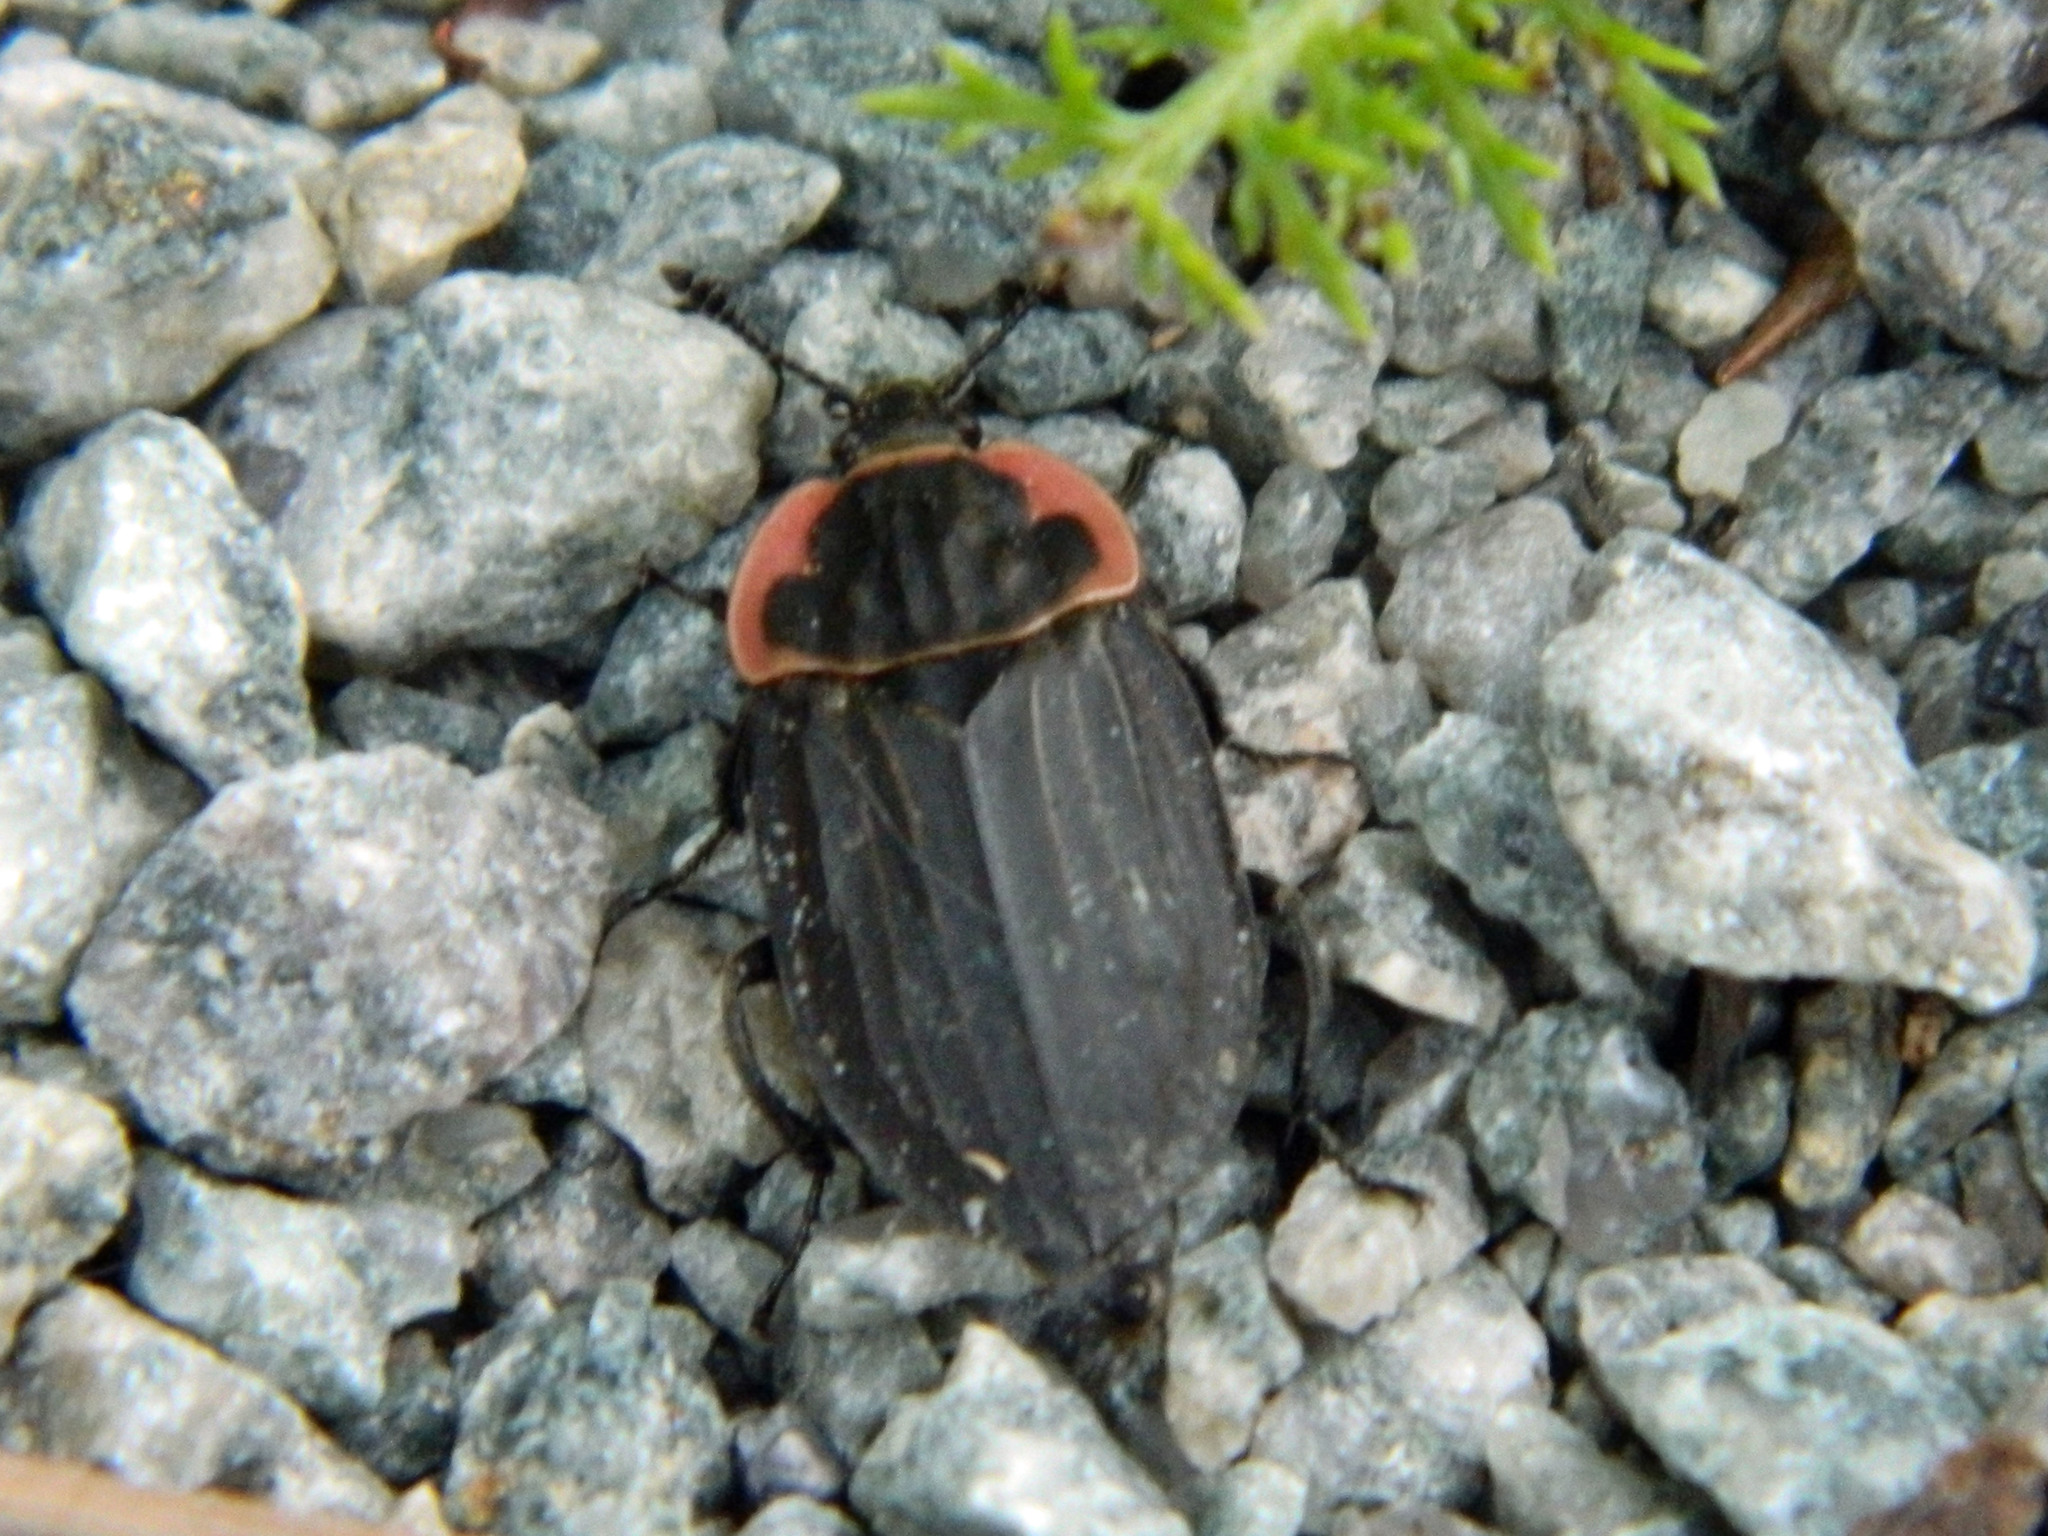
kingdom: Animalia
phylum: Arthropoda
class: Insecta
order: Coleoptera
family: Staphylinidae
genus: Oiceoptoma
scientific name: Oiceoptoma noveboracense
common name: Margined carrion beetle
